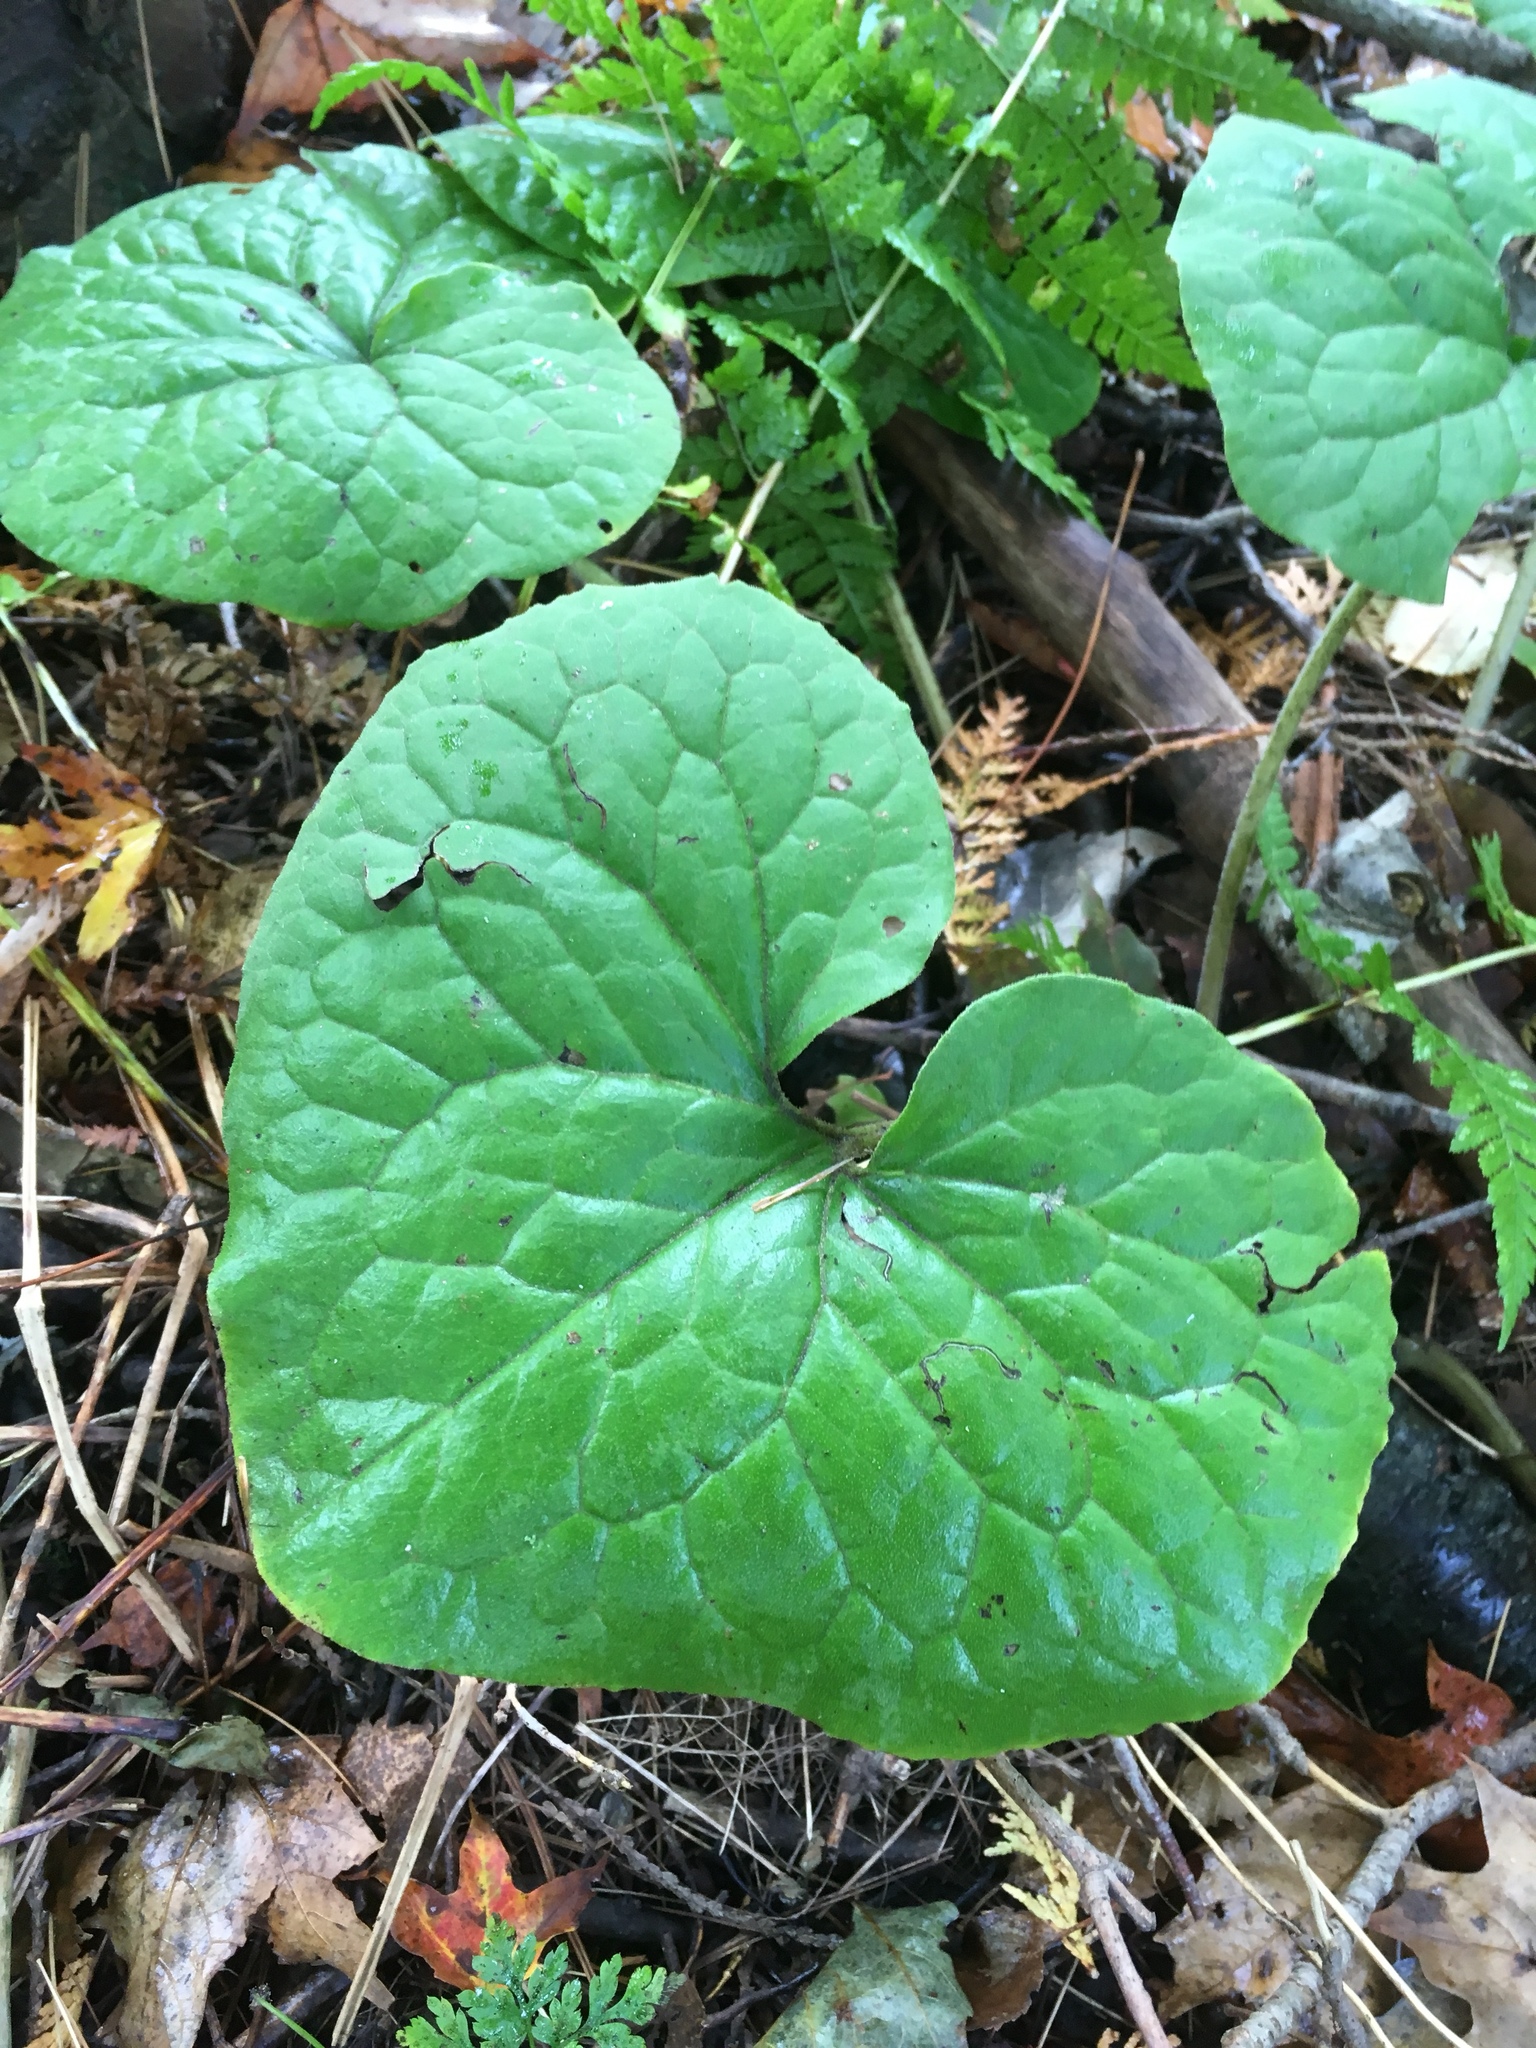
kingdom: Plantae
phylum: Tracheophyta
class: Magnoliopsida
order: Piperales
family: Aristolochiaceae
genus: Asarum
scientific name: Asarum canadense
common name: Wild ginger
